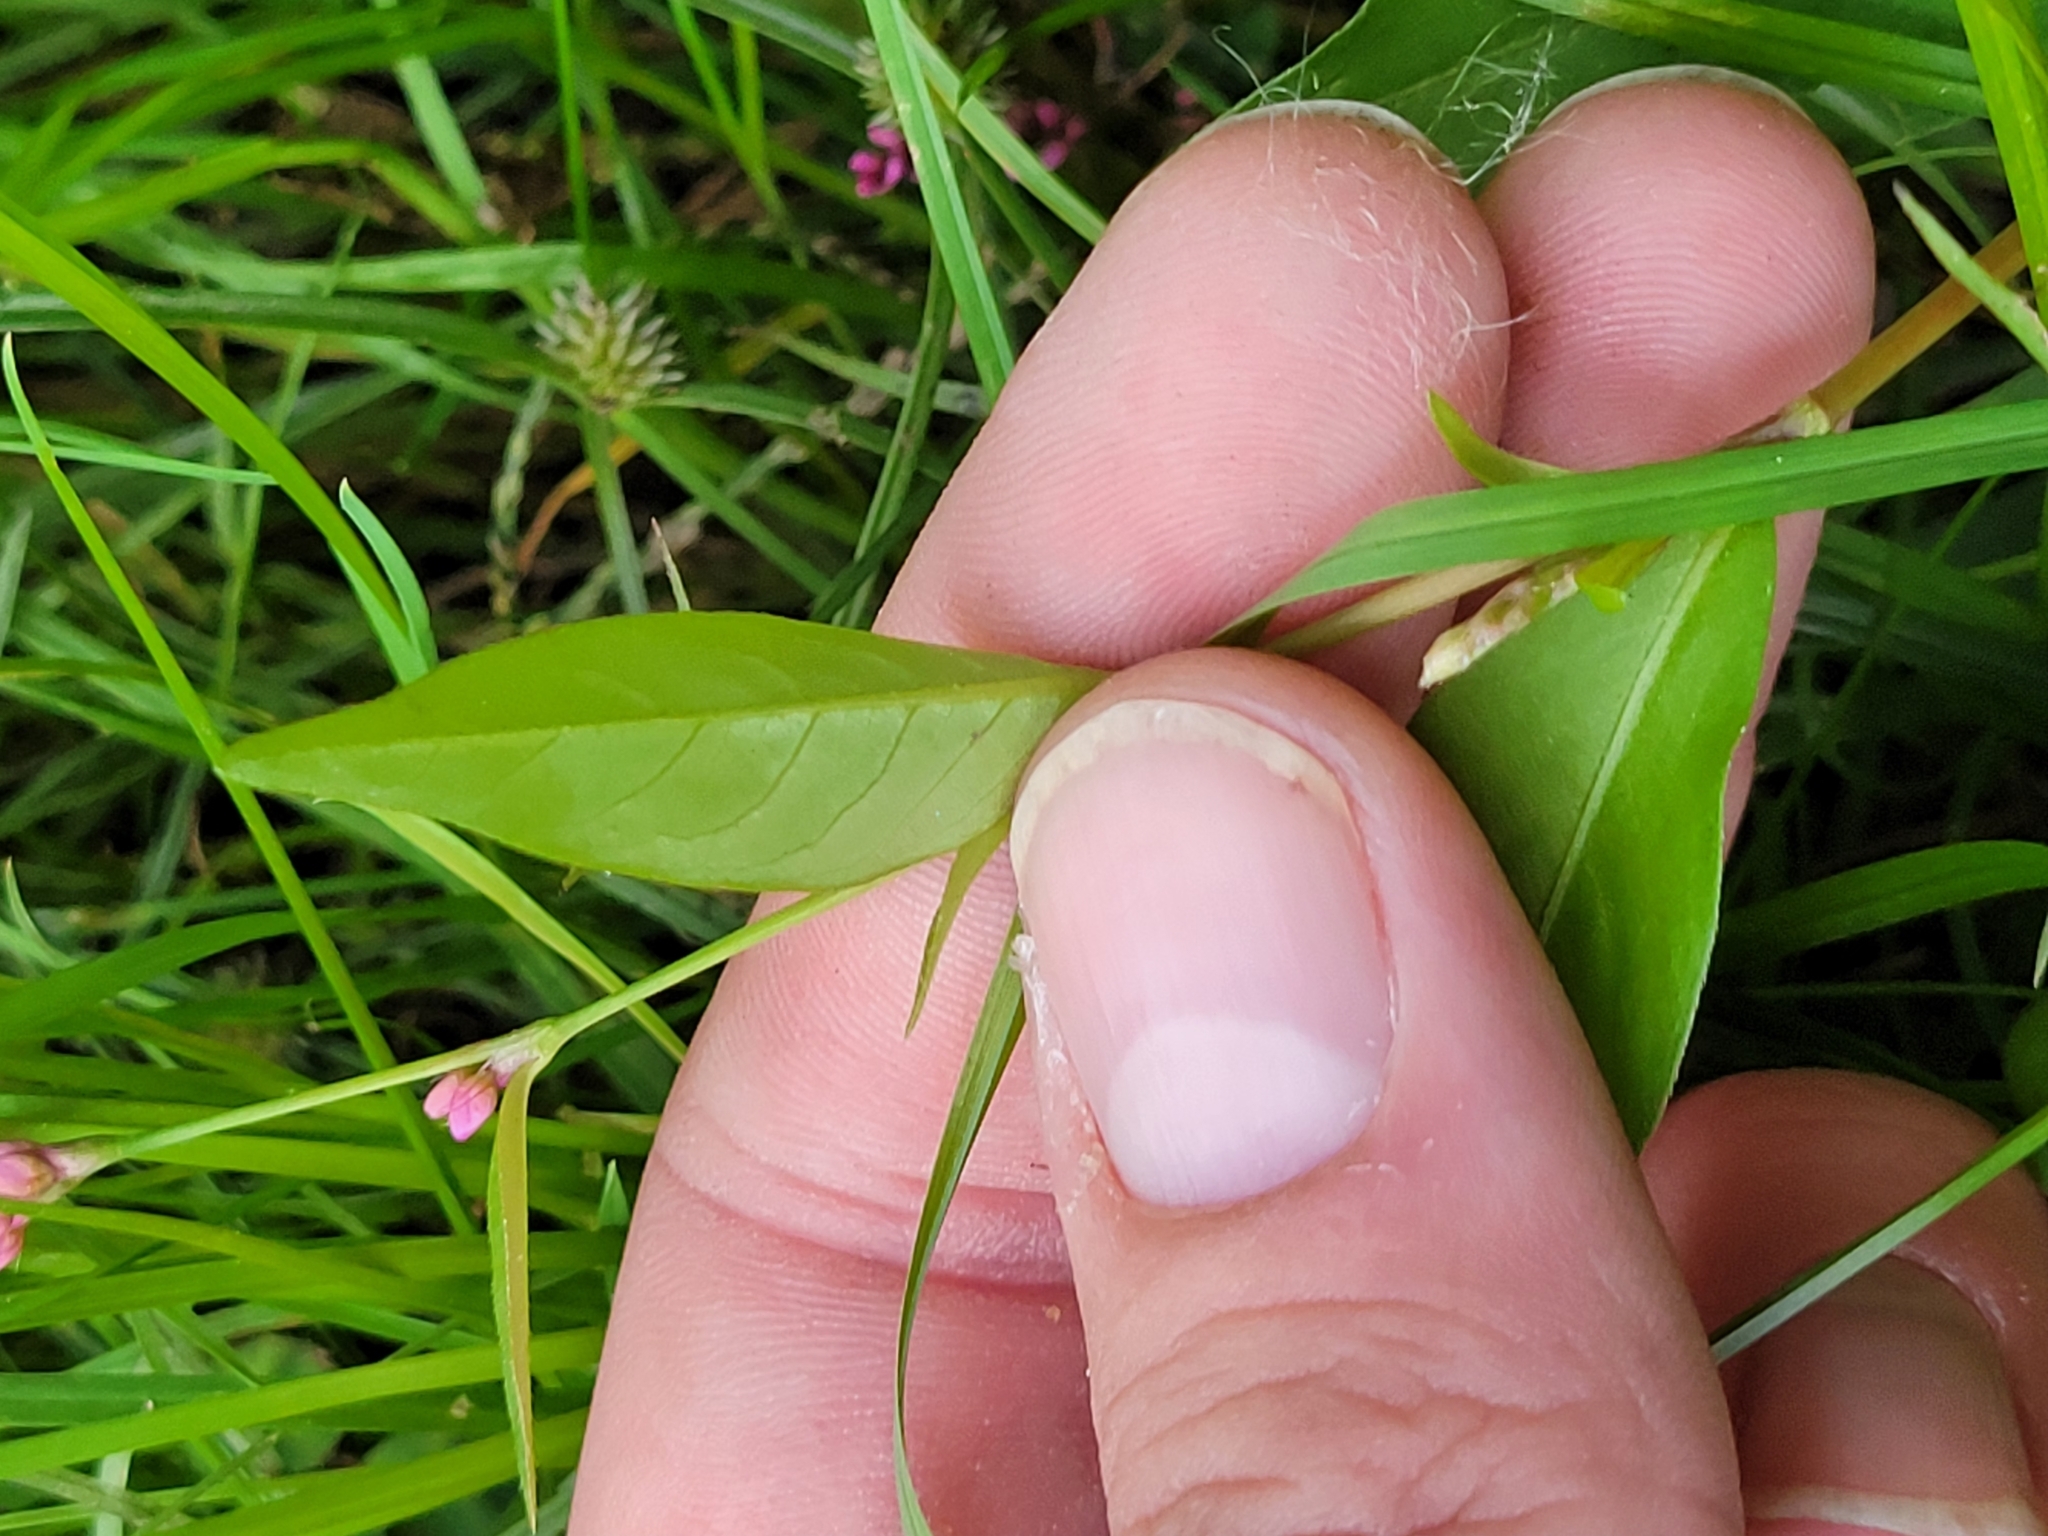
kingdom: Plantae
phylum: Tracheophyta
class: Magnoliopsida
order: Caryophyllales
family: Polygonaceae
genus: Persicaria
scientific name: Persicaria longiseta
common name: Bristly lady's-thumb
